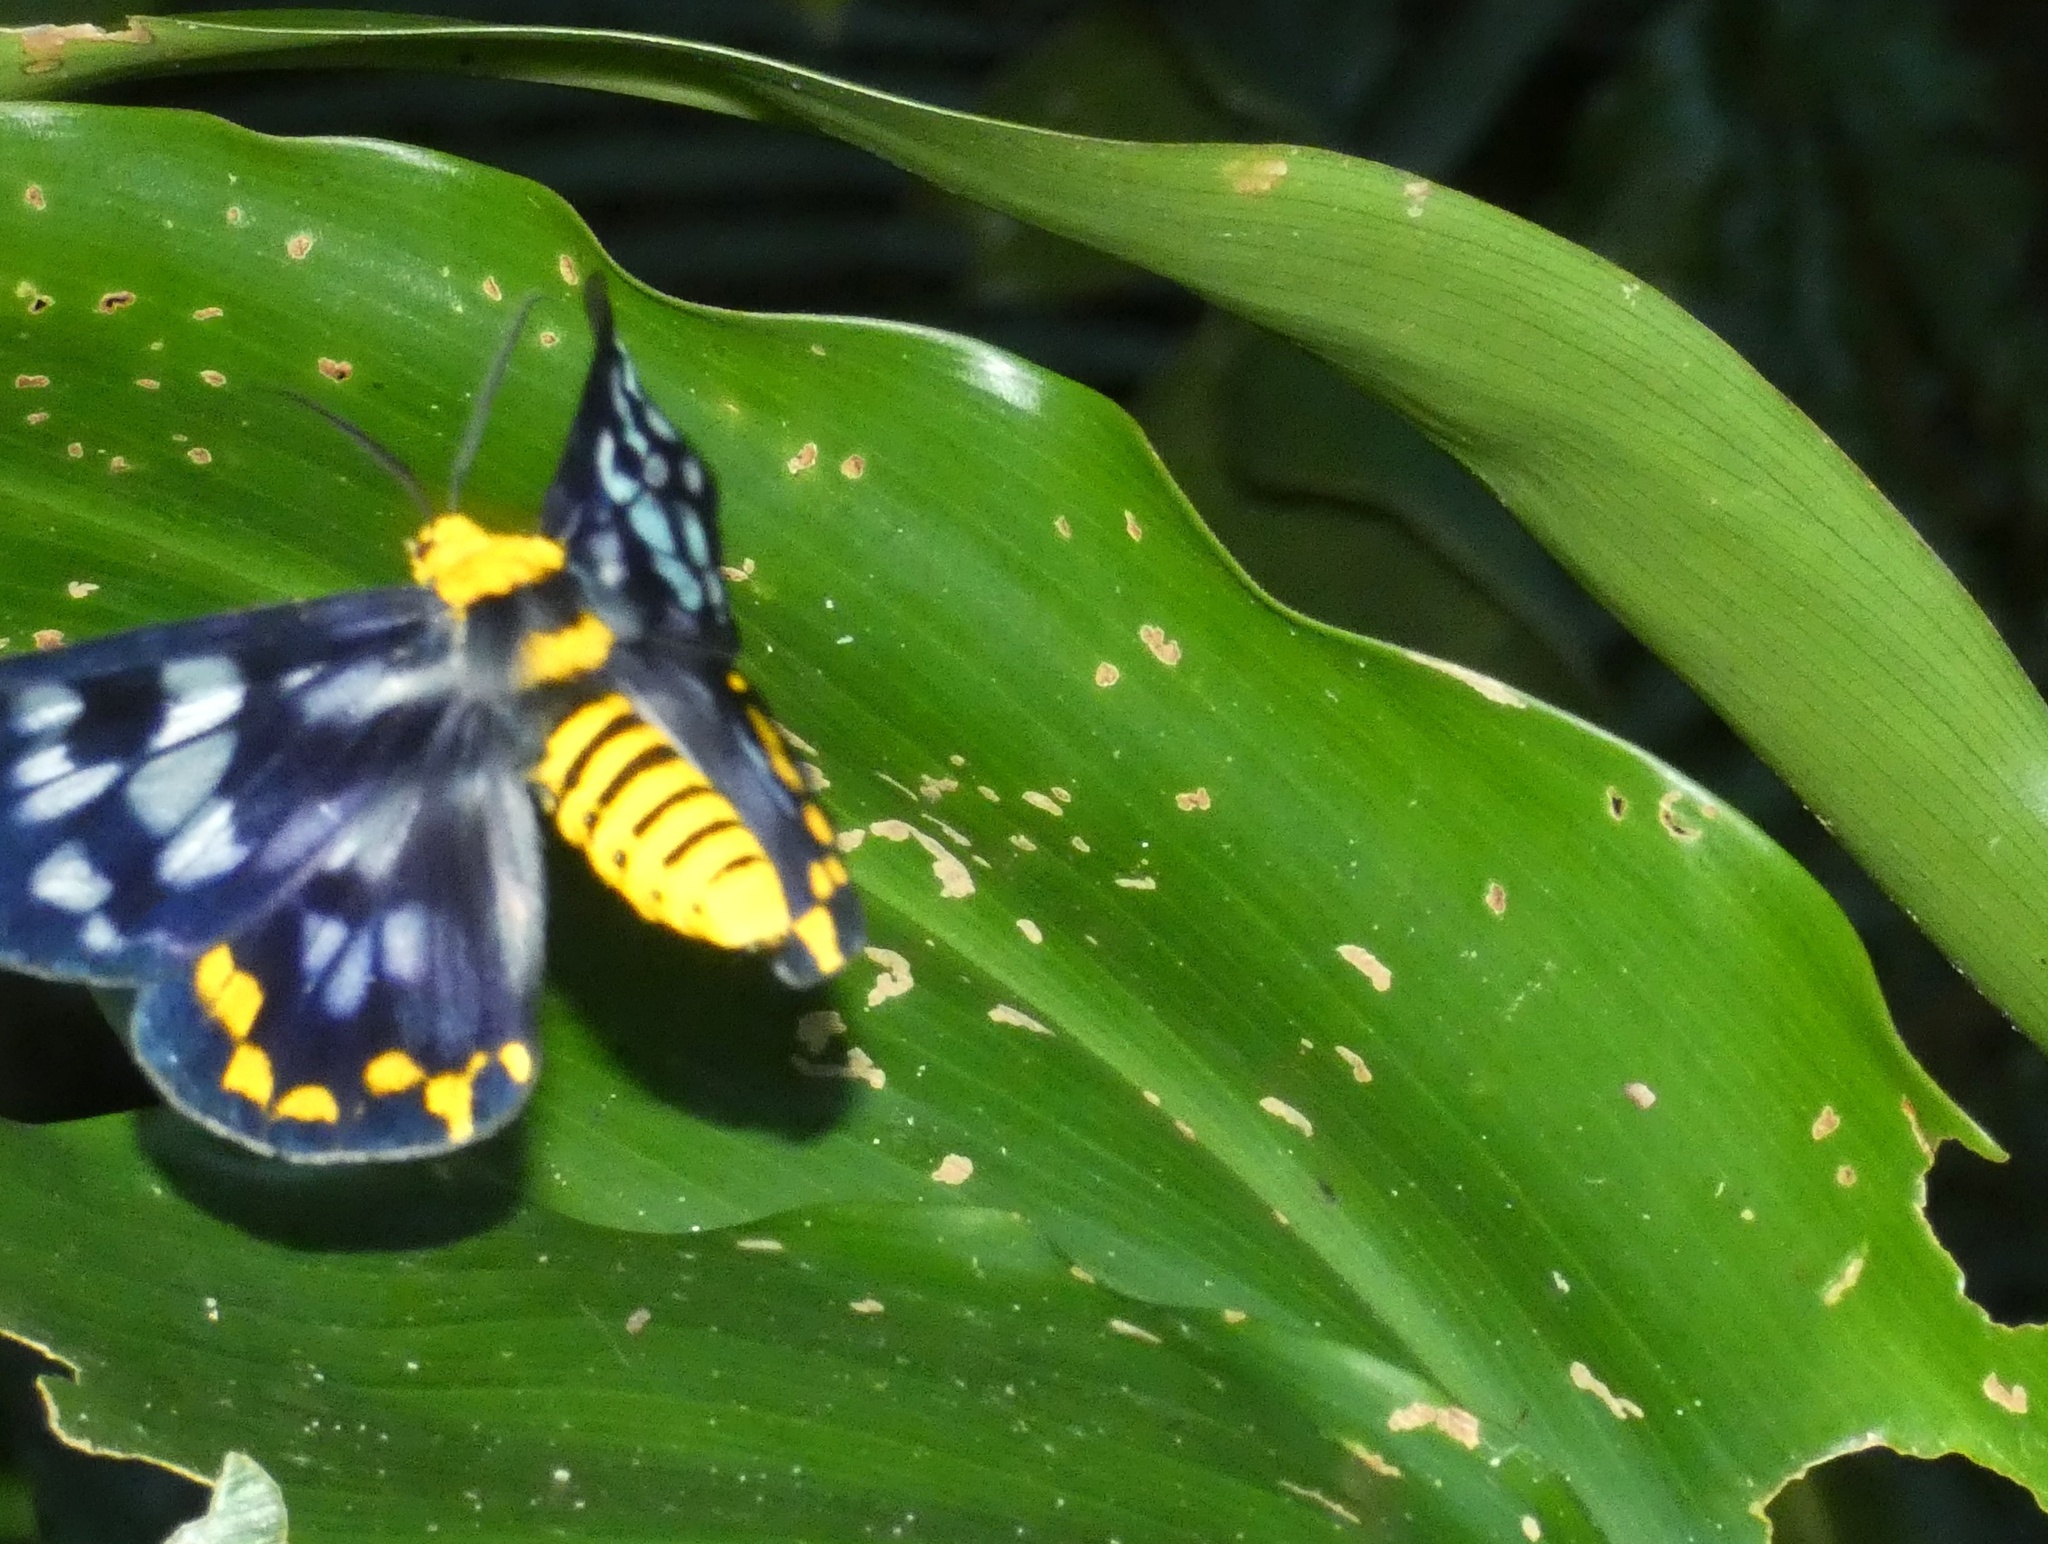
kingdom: Animalia
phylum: Arthropoda
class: Insecta
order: Lepidoptera
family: Geometridae
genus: Dysphania
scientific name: Dysphania numana
